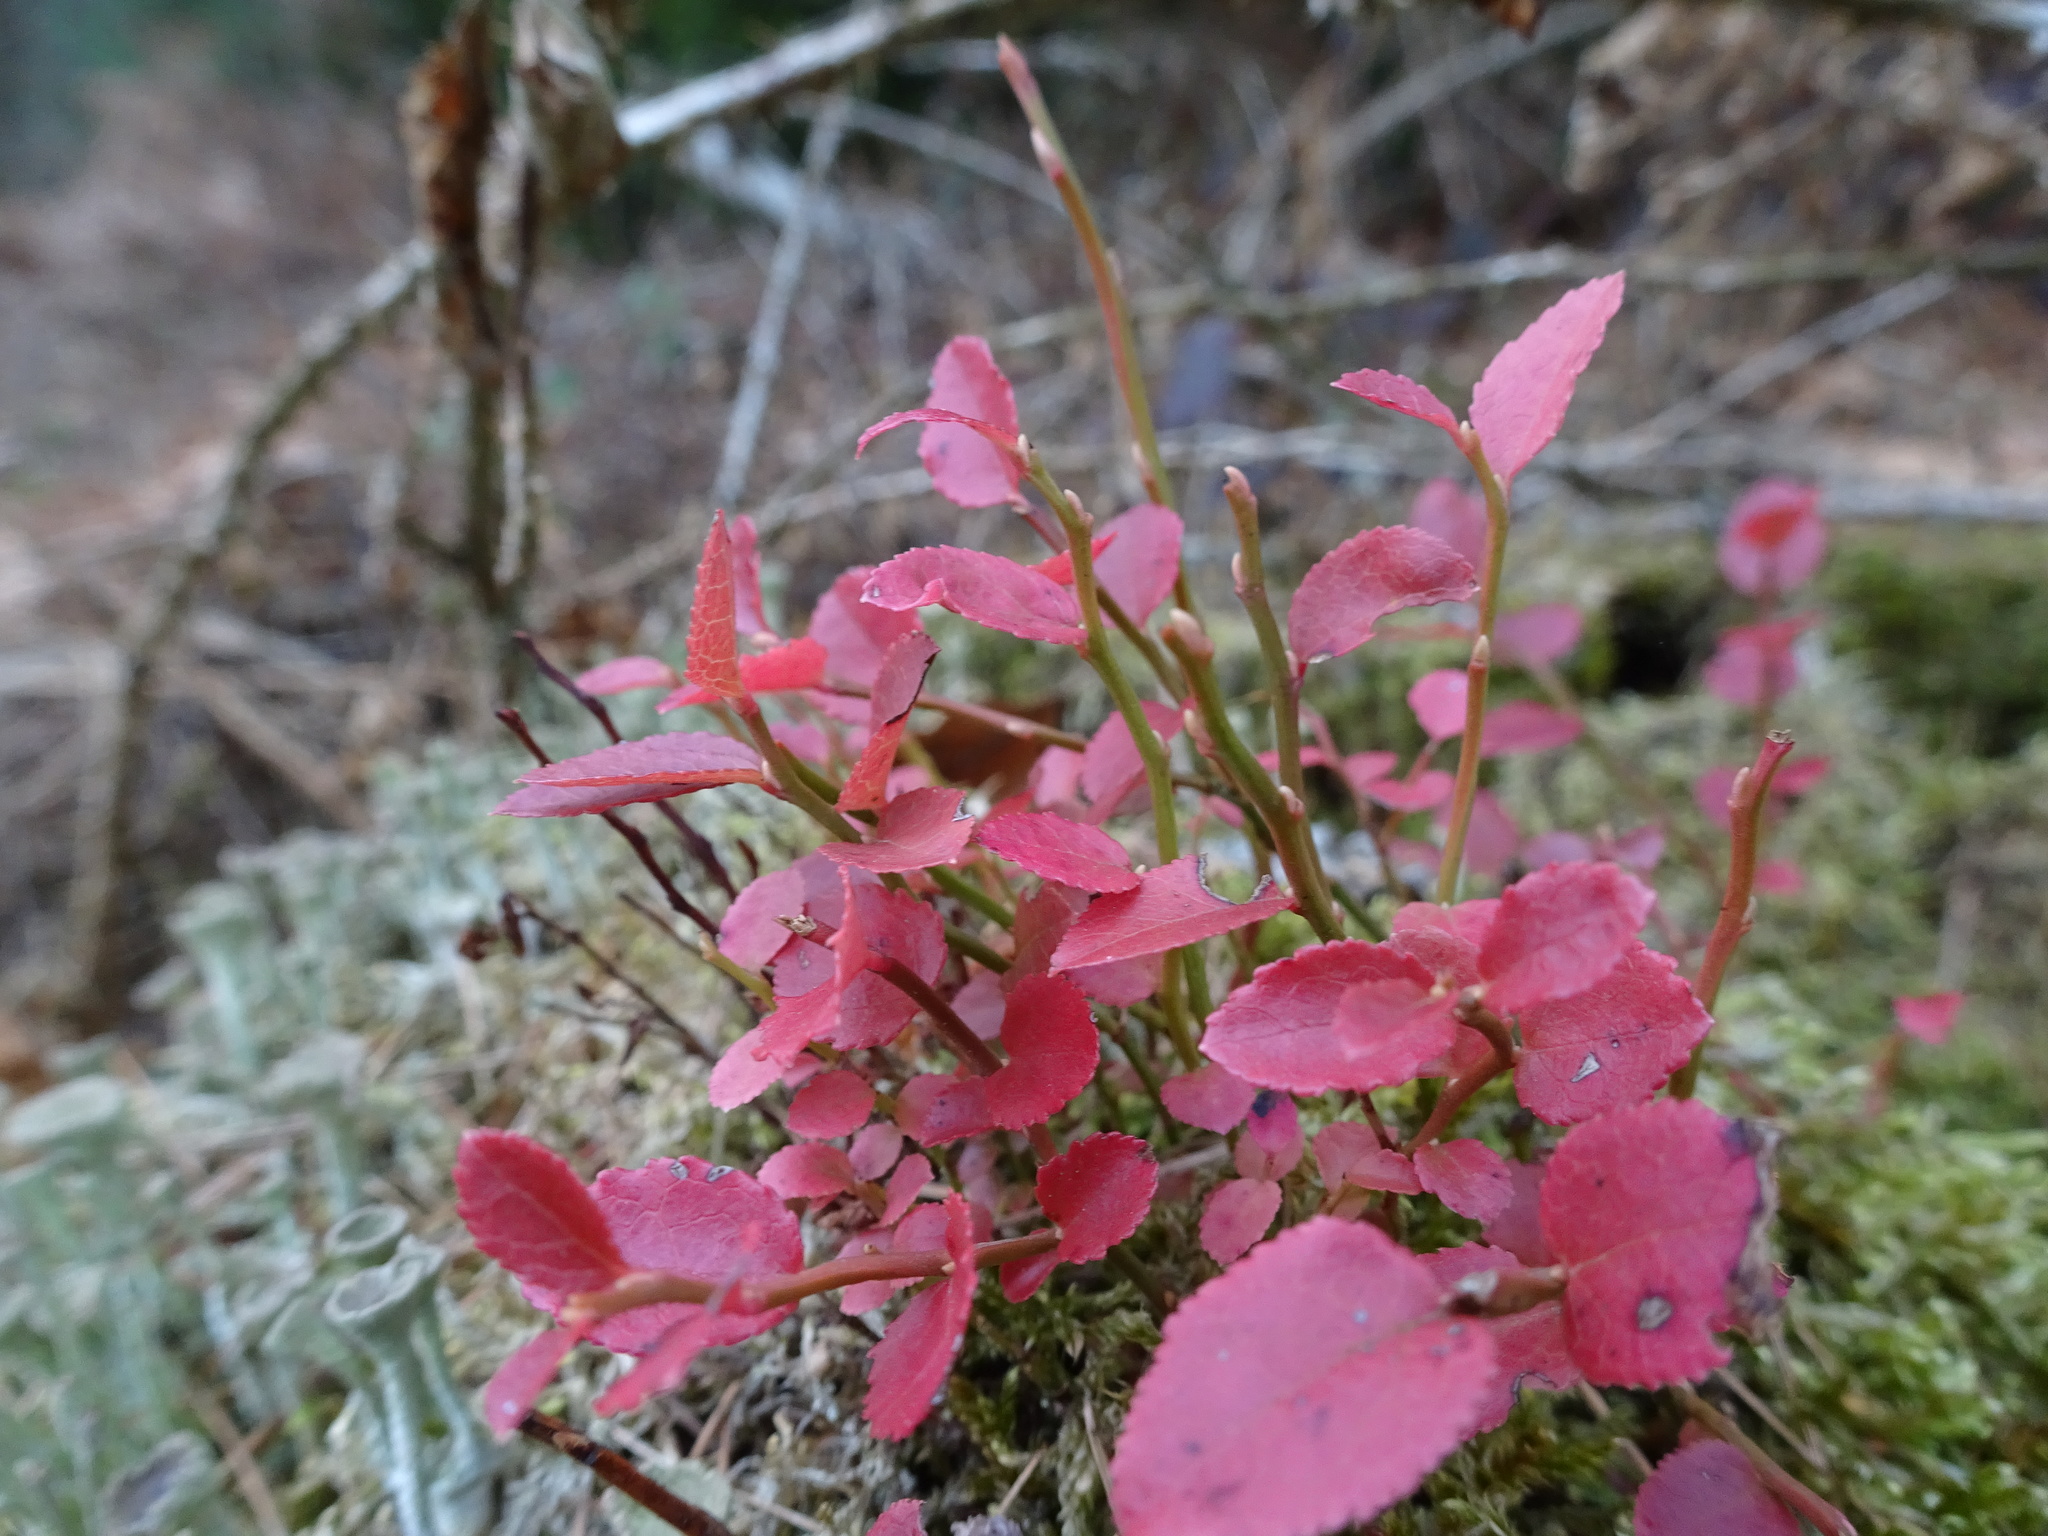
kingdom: Plantae
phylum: Tracheophyta
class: Magnoliopsida
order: Ericales
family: Ericaceae
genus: Vaccinium
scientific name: Vaccinium myrtillus
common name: Bilberry
